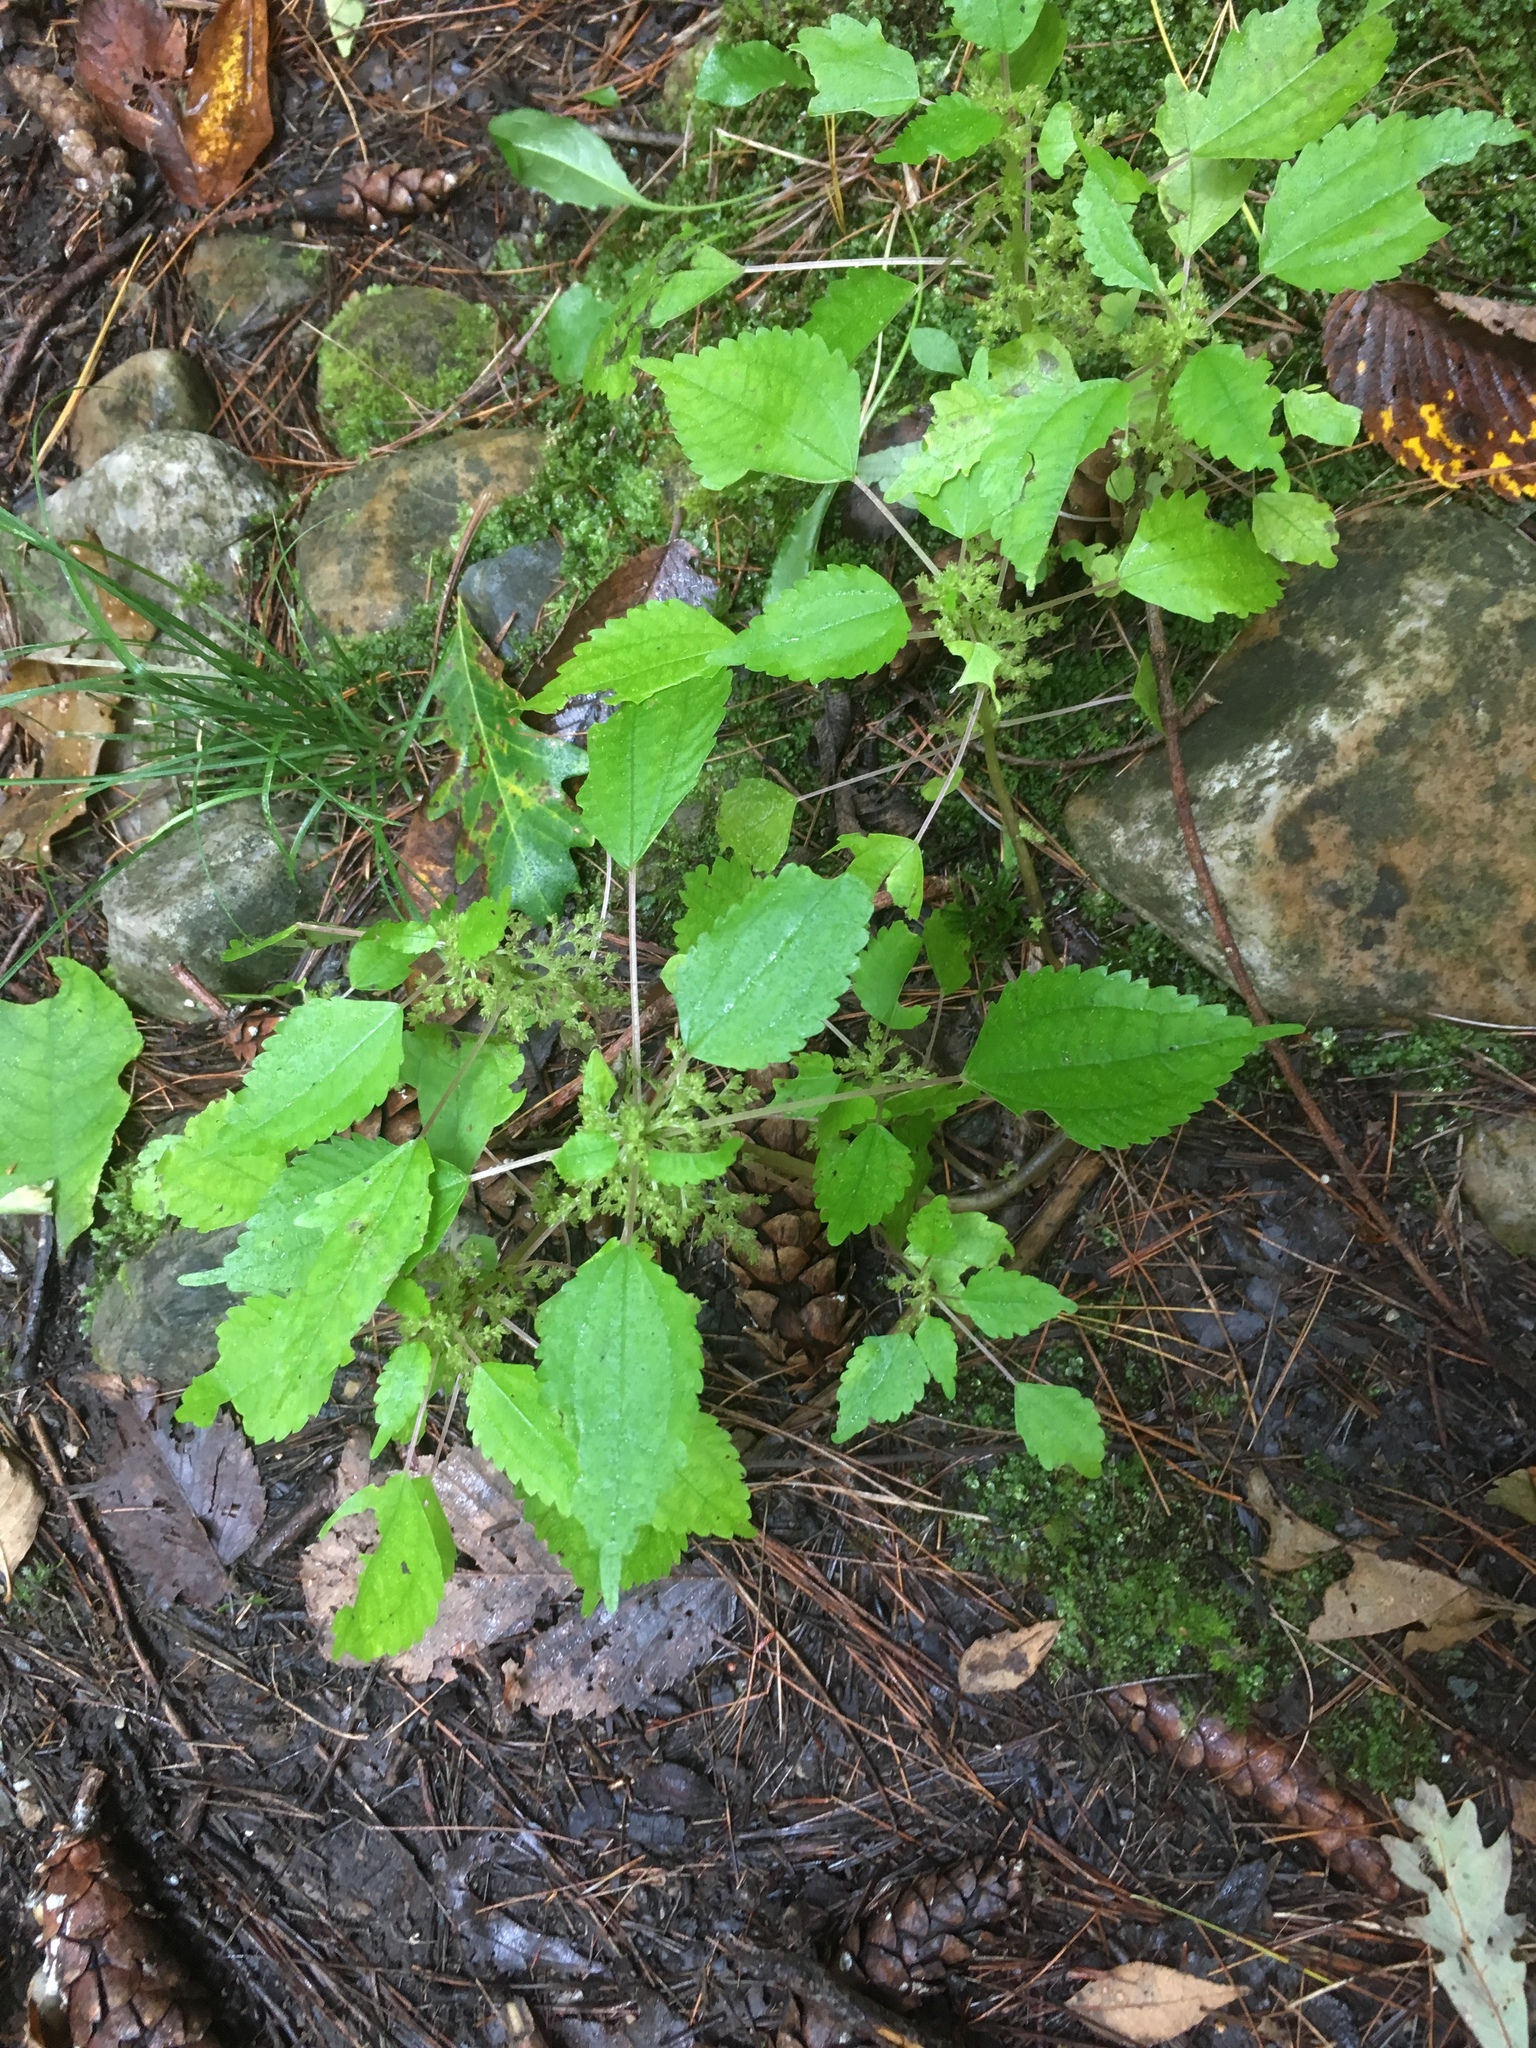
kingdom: Plantae
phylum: Tracheophyta
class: Magnoliopsida
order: Rosales
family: Urticaceae
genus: Pilea
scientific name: Pilea pumila
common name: Clearweed
